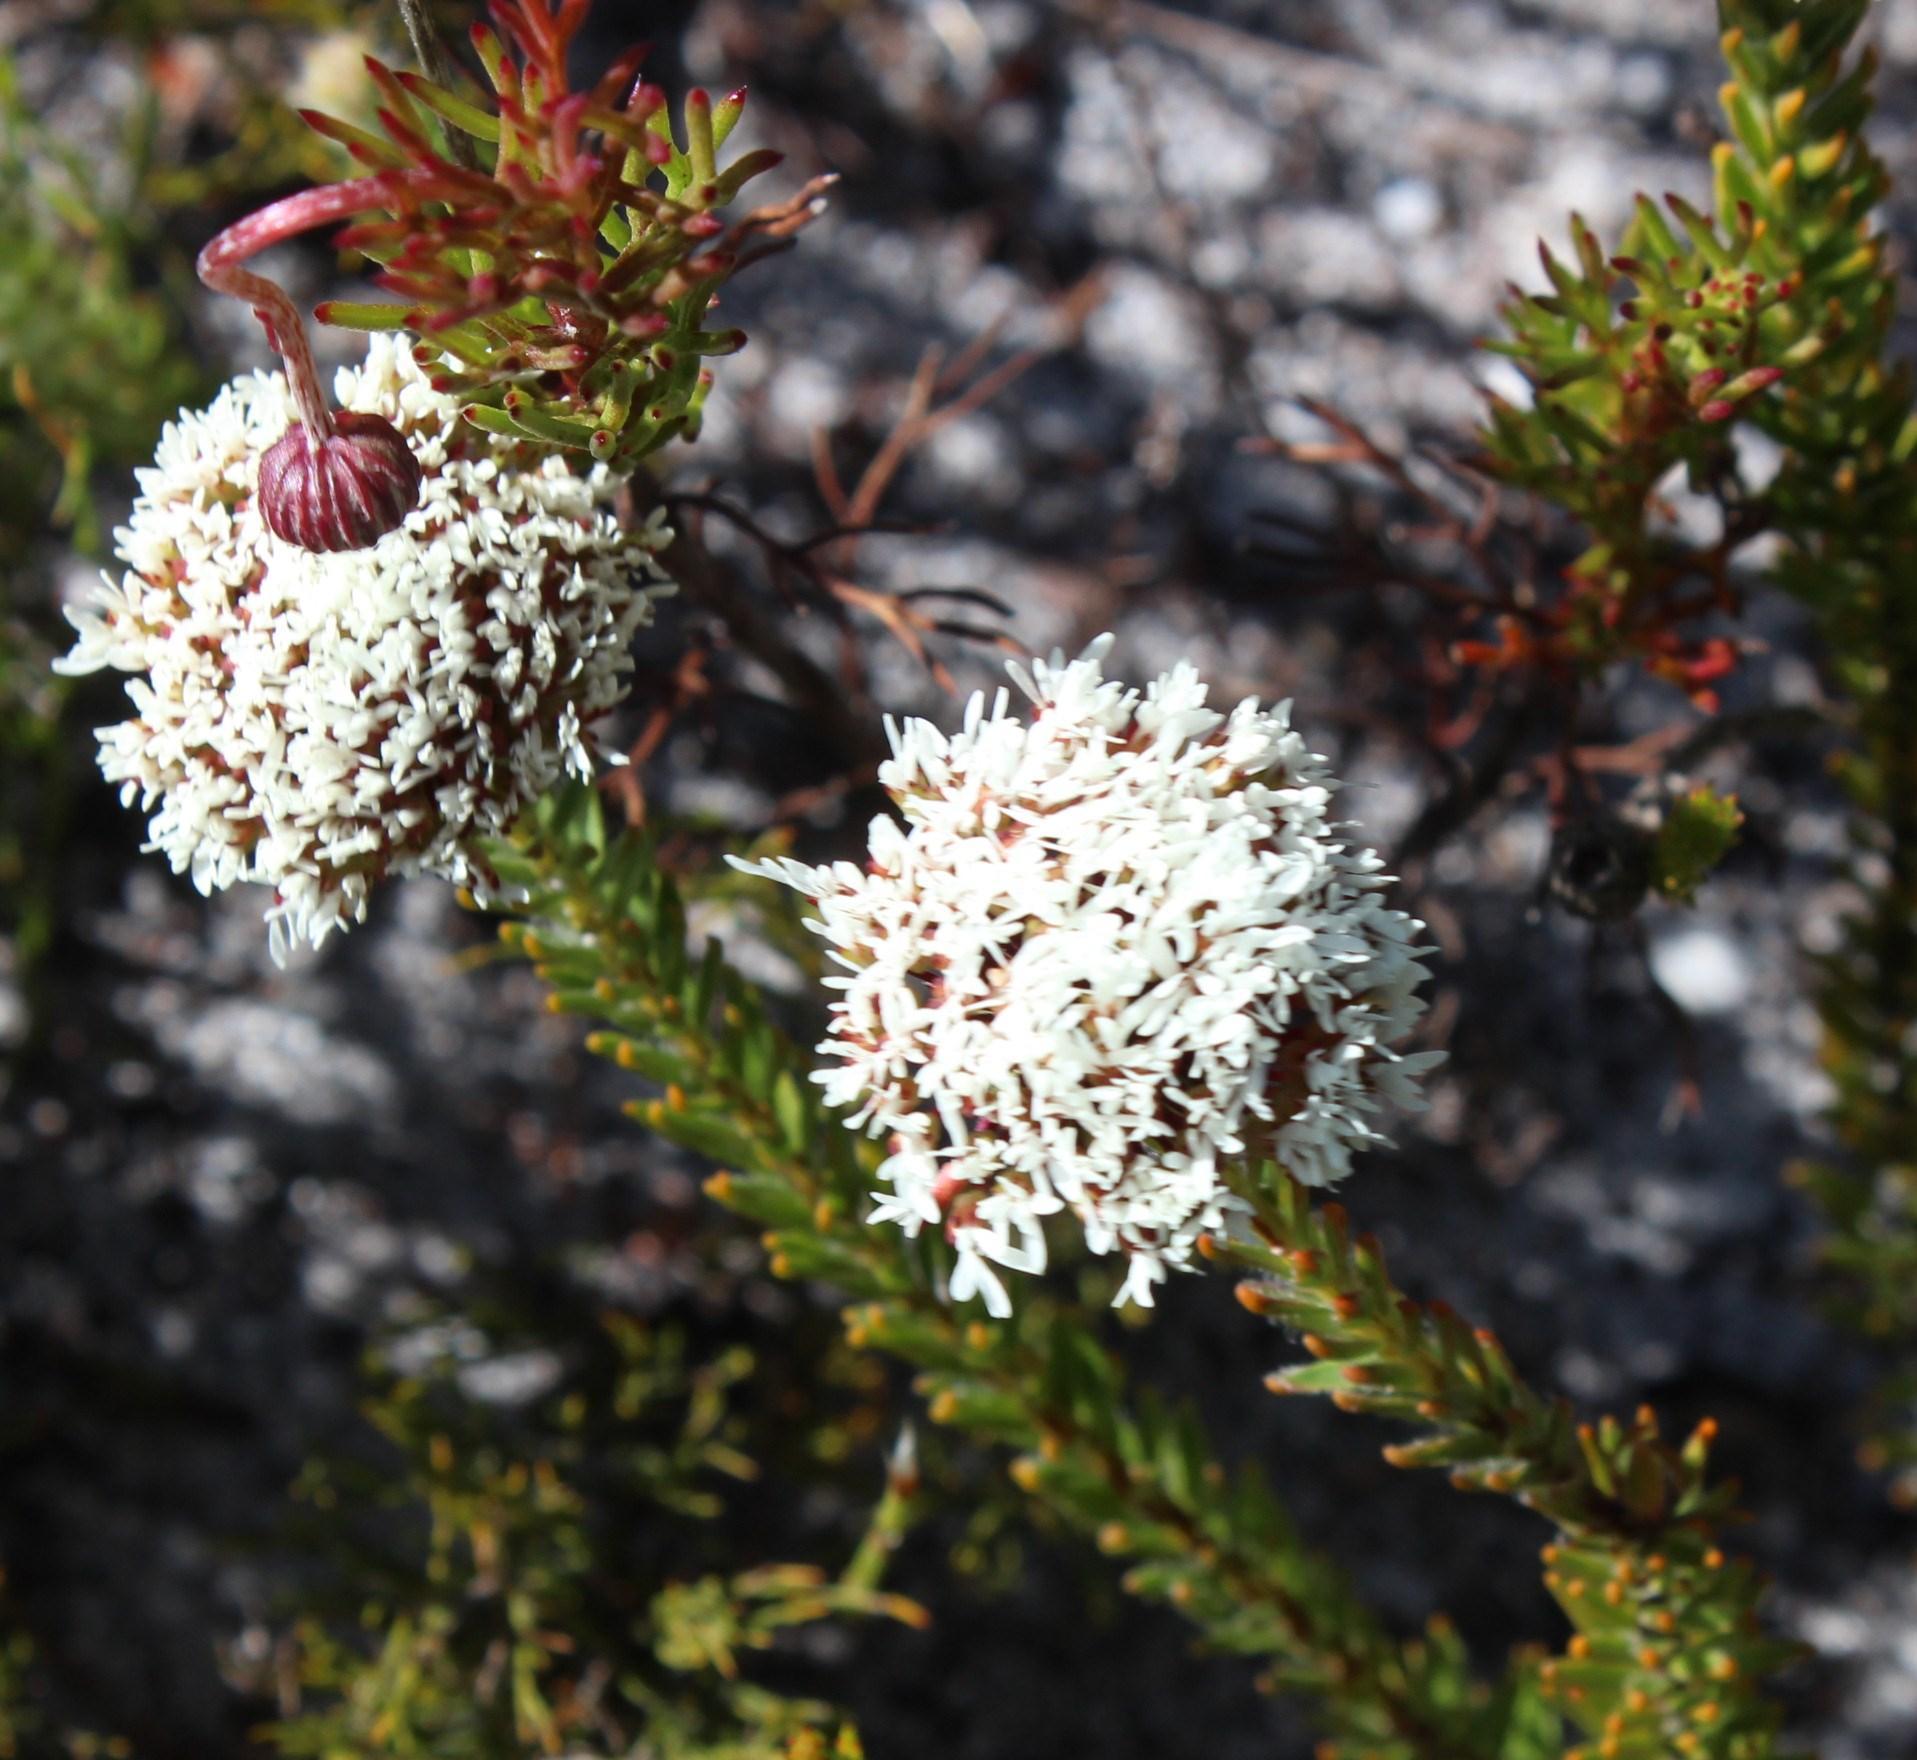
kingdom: Plantae
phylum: Tracheophyta
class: Magnoliopsida
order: Sapindales
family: Rutaceae
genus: Agathosma
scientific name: Agathosma bifida
